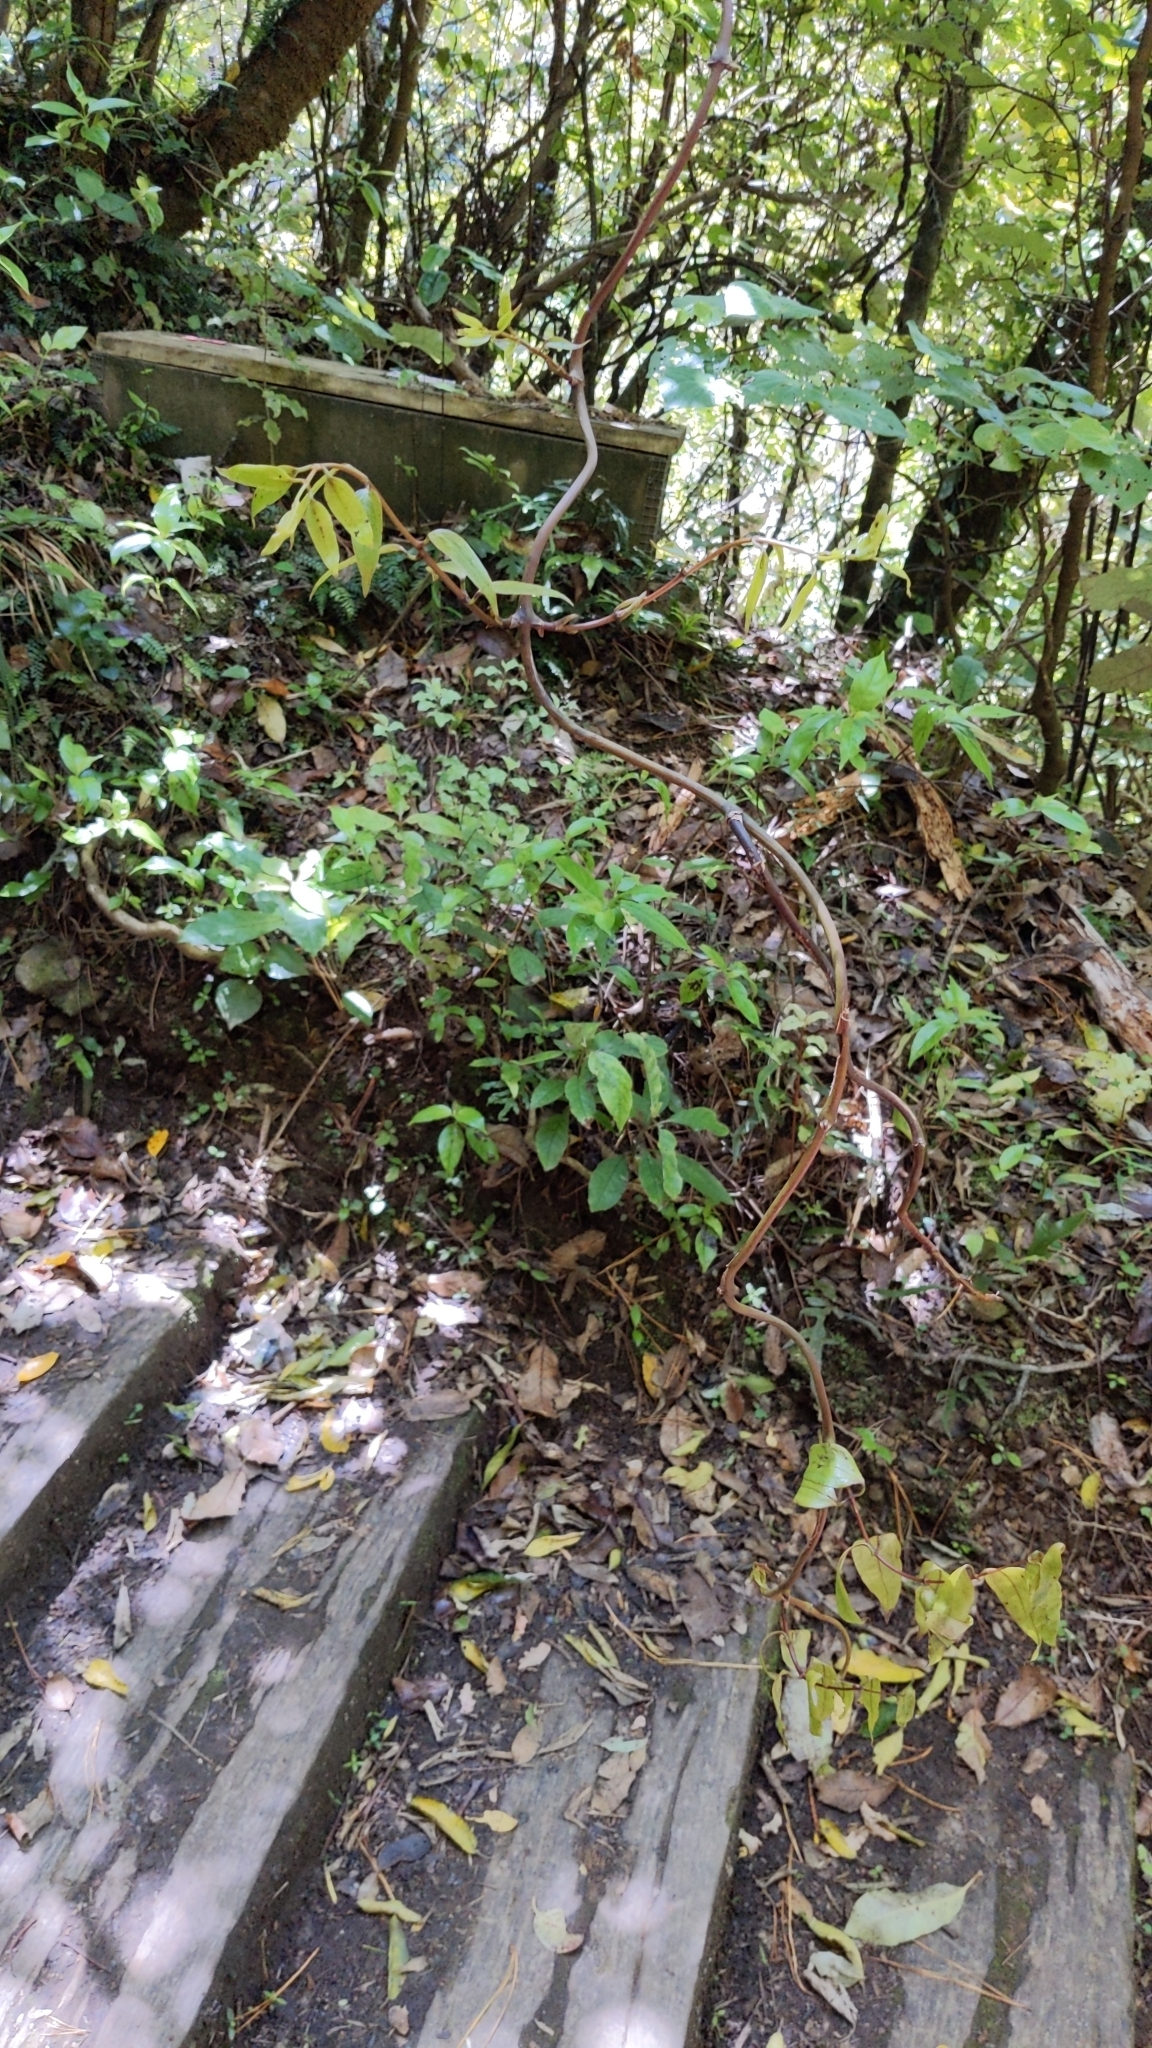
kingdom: Plantae
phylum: Tracheophyta
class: Liliopsida
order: Liliales
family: Ripogonaceae
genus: Ripogonum
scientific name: Ripogonum scandens
